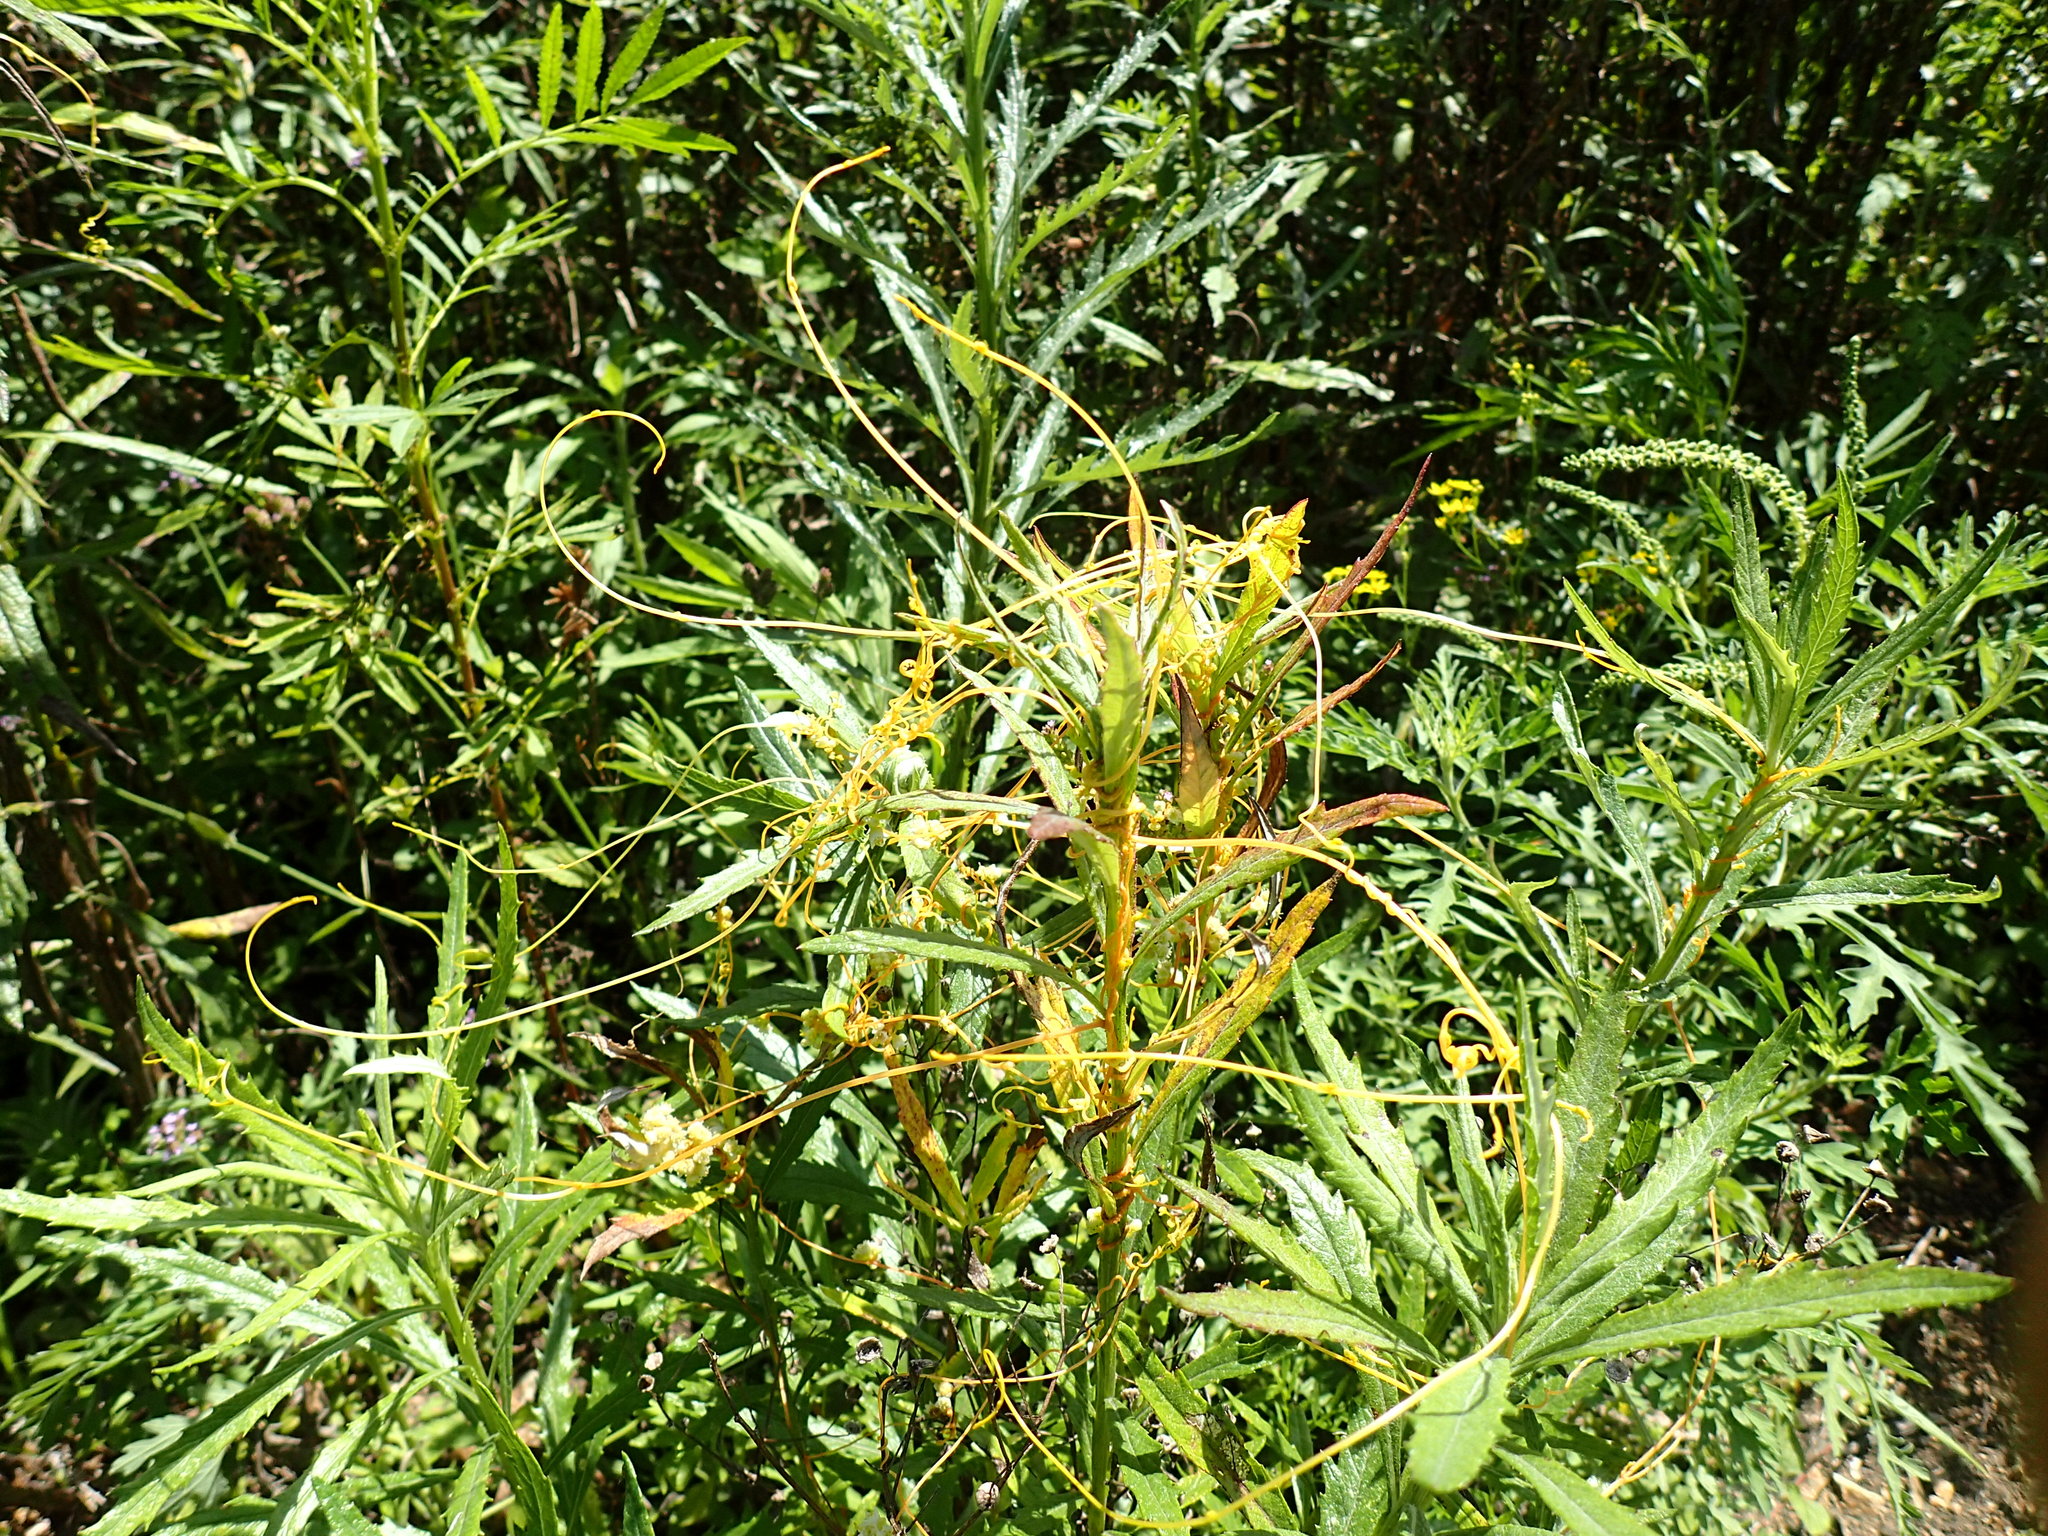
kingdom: Plantae
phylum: Tracheophyta
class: Magnoliopsida
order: Solanales
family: Convolvulaceae
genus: Cuscuta
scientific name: Cuscuta campestris
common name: Yellow dodder
